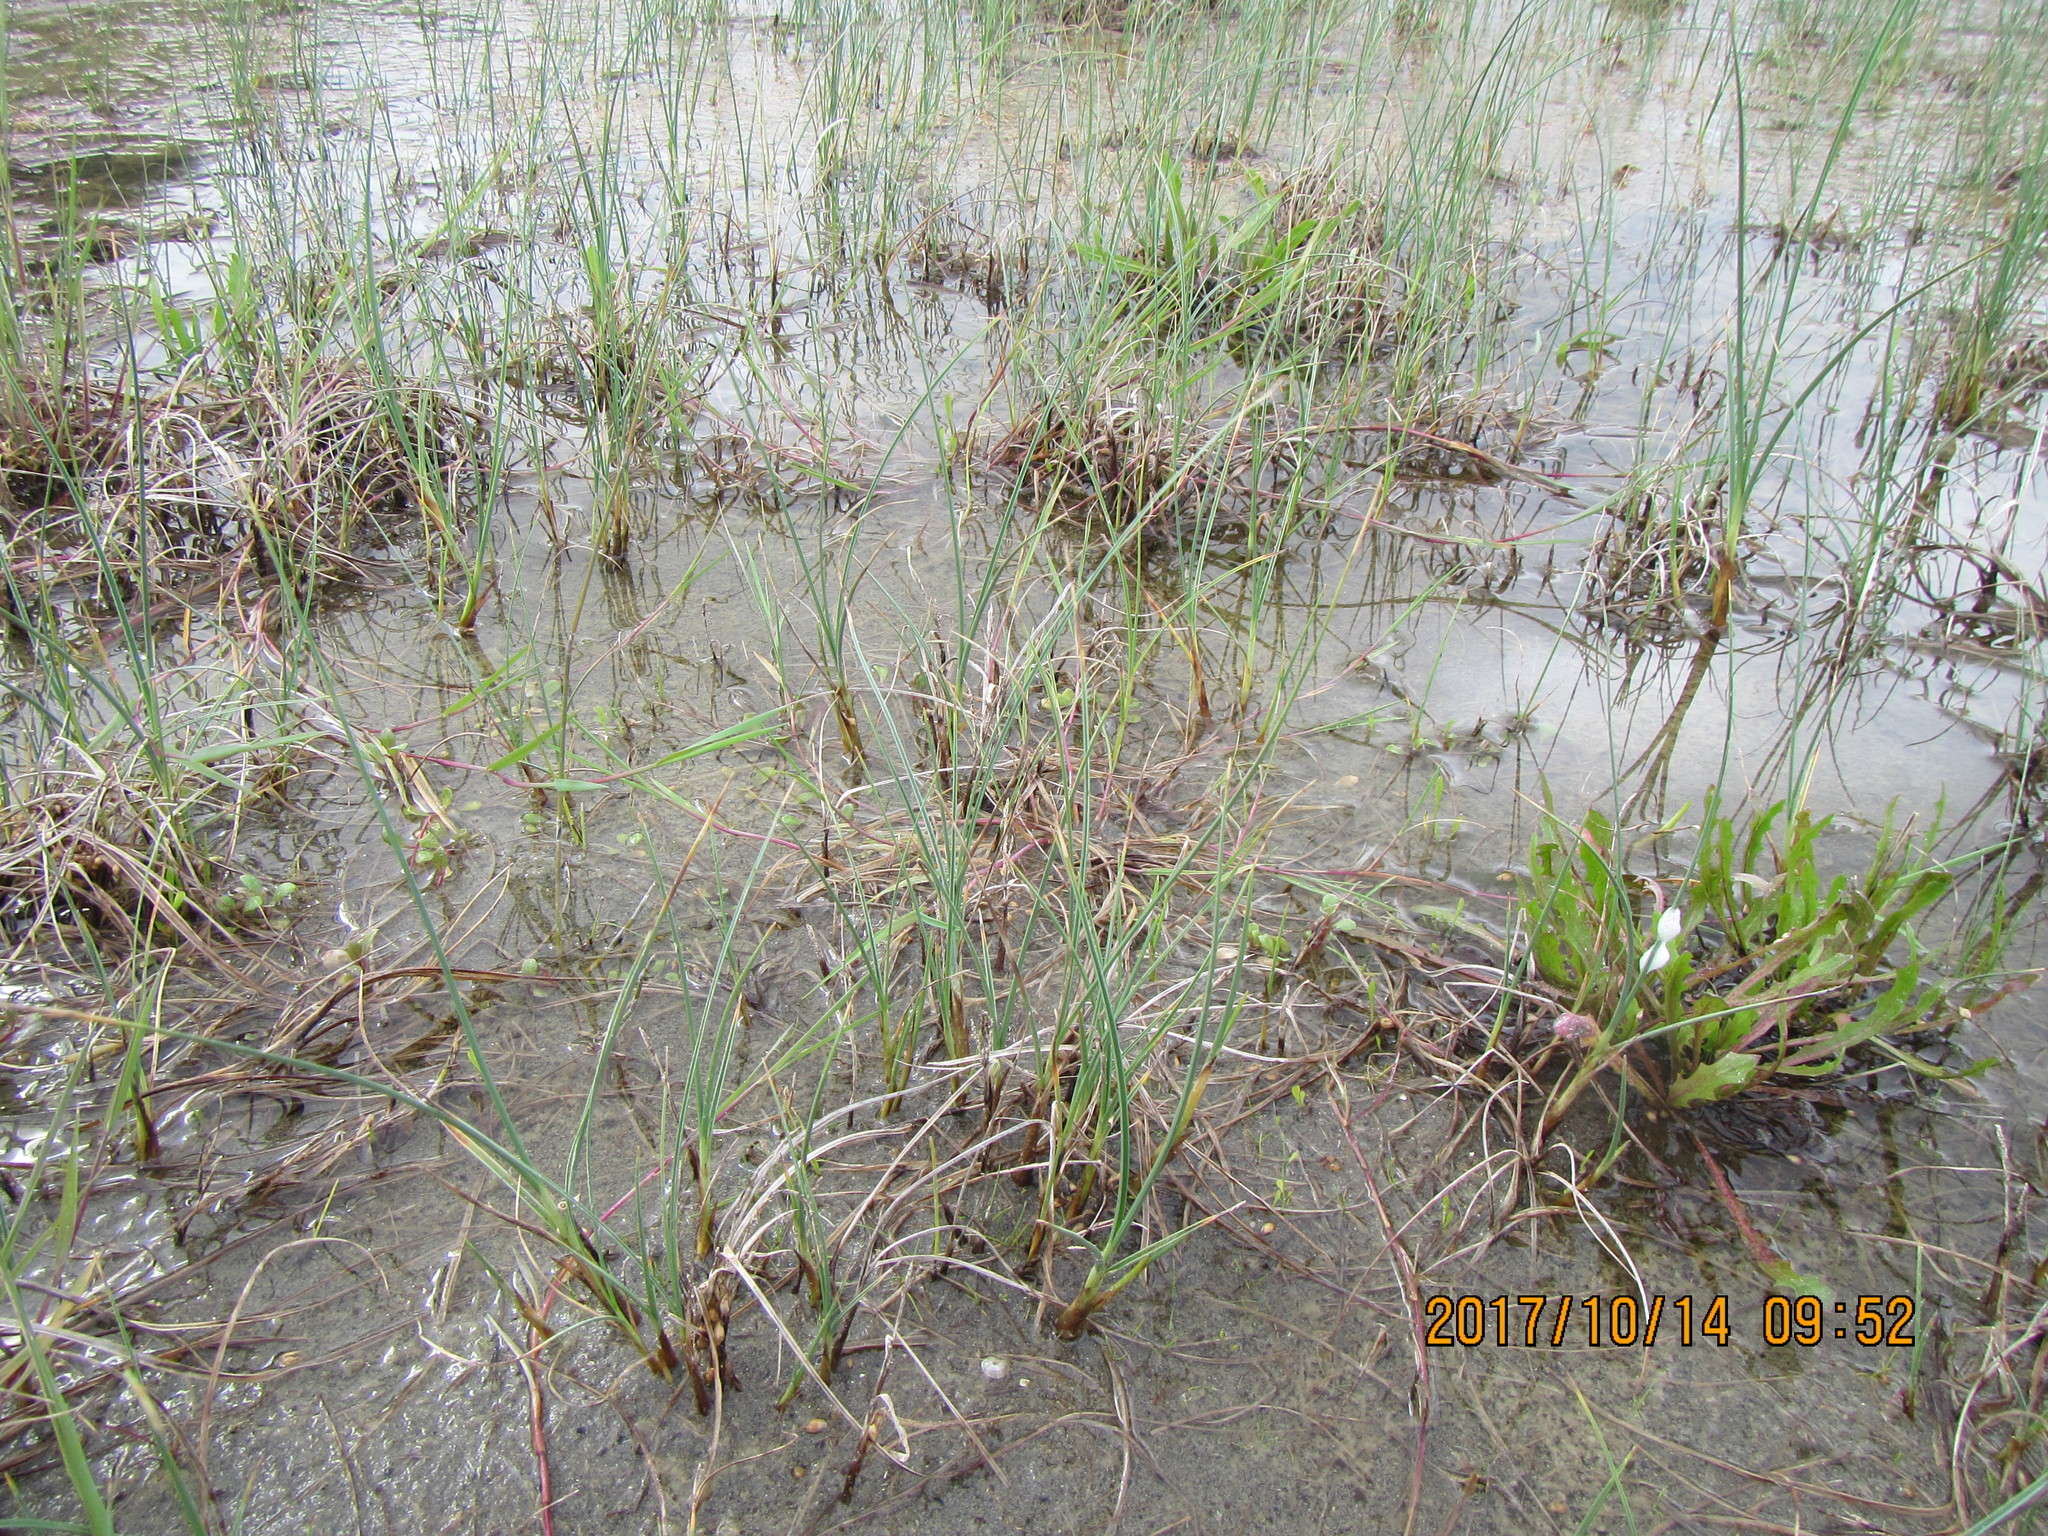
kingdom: Plantae
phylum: Tracheophyta
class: Liliopsida
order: Poales
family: Cyperaceae
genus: Carex
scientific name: Carex pumila
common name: Dwarf sedge
